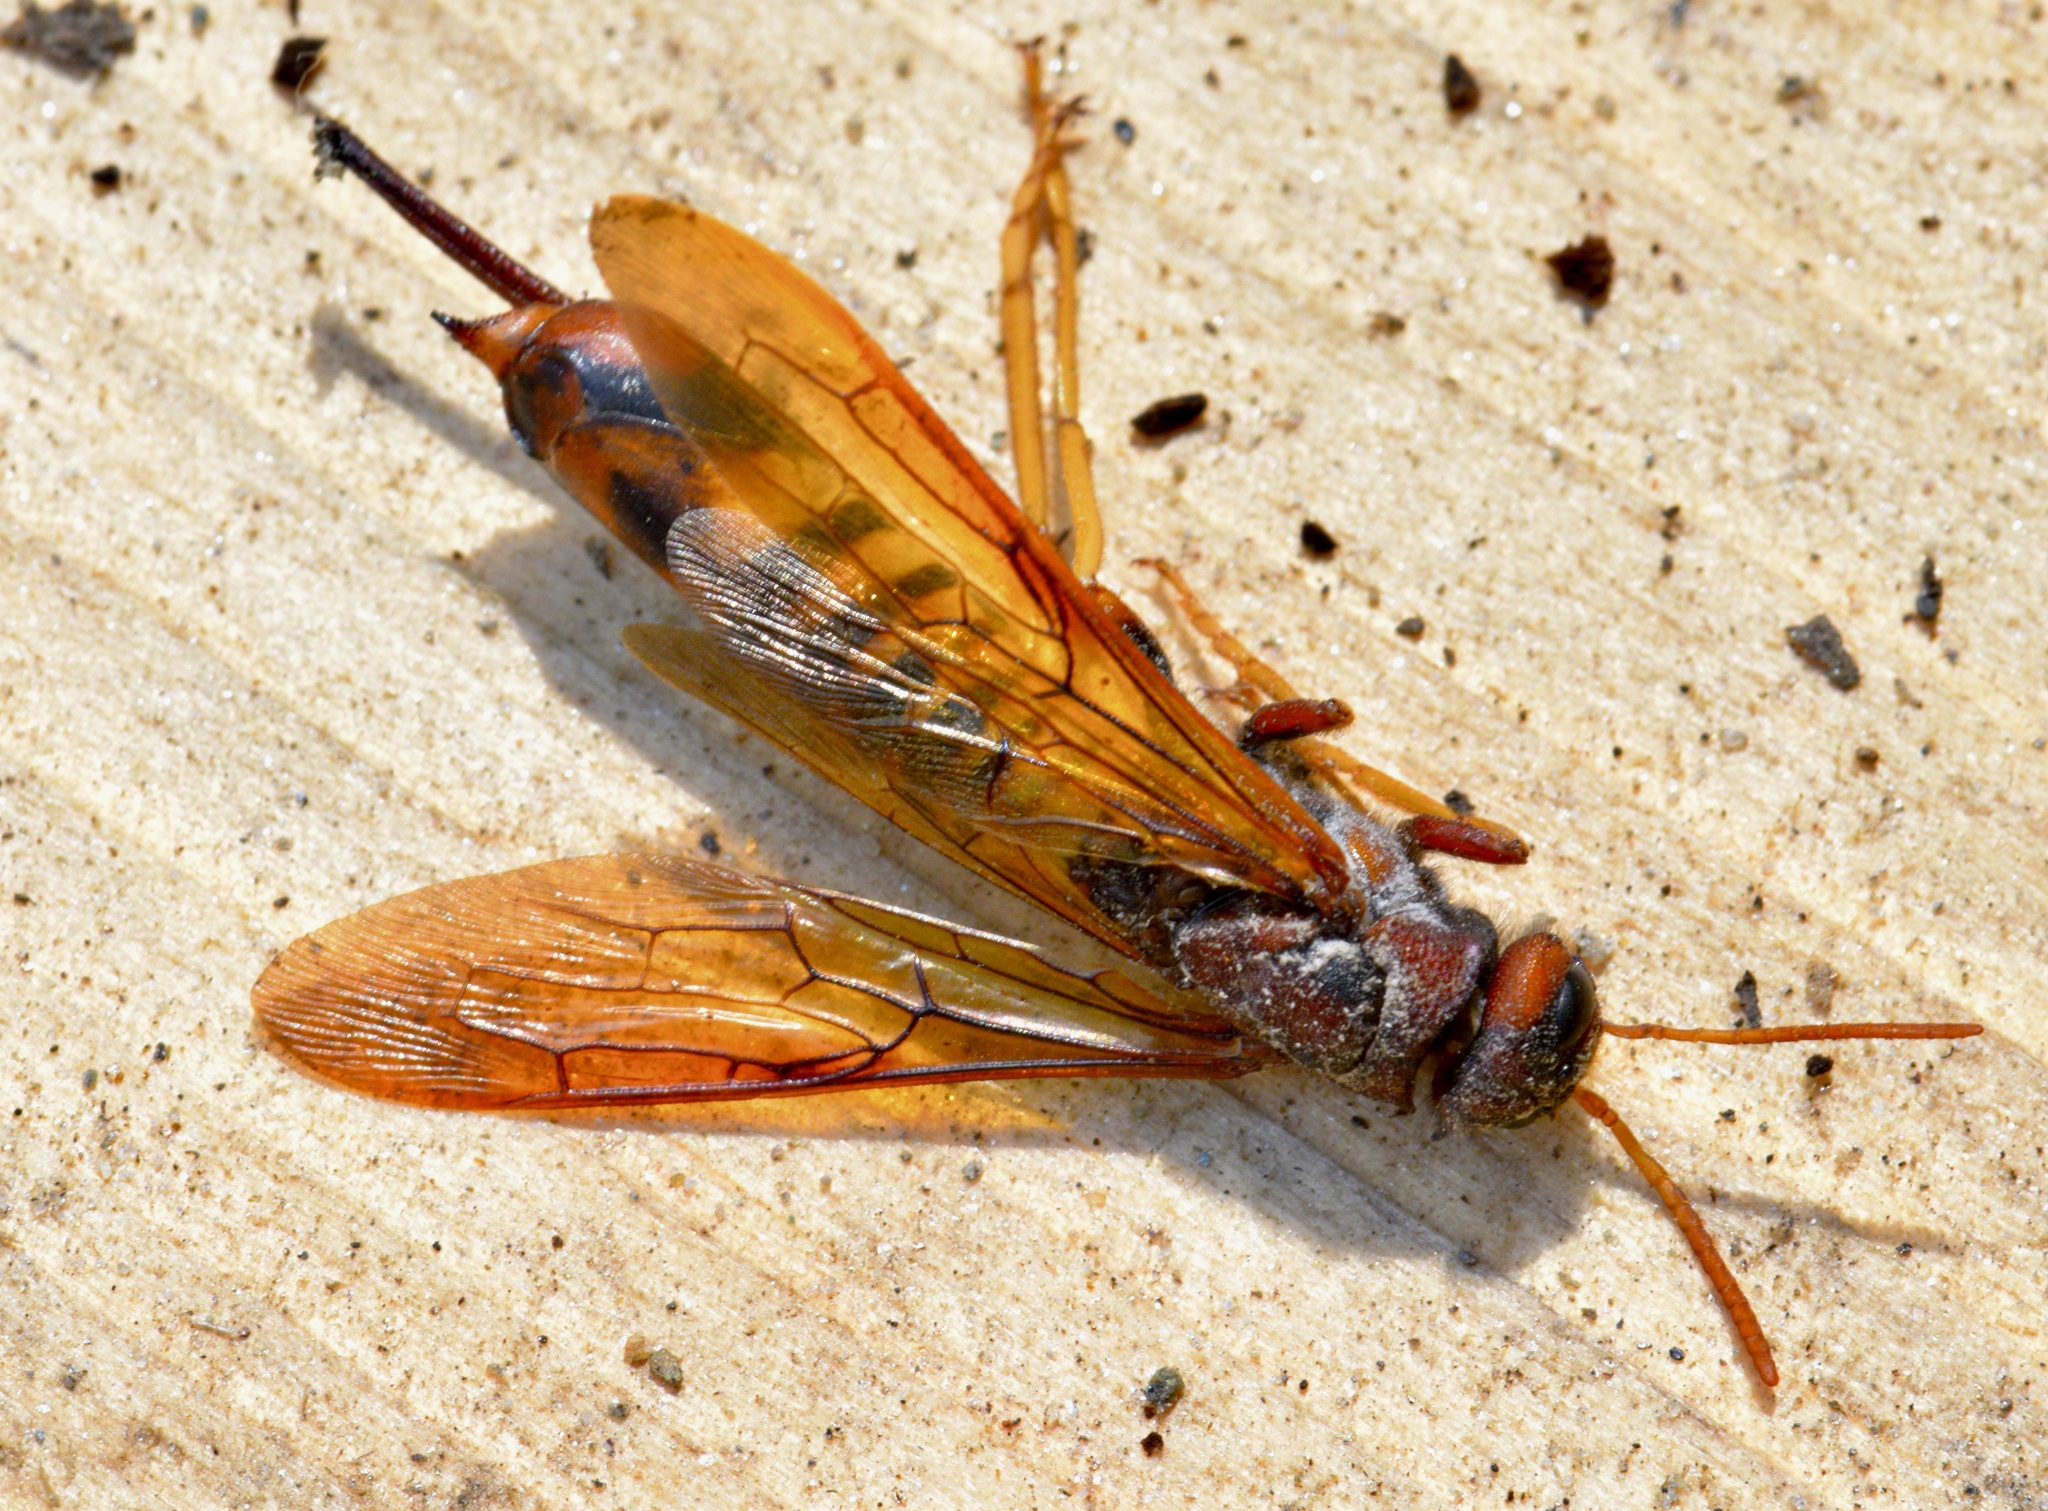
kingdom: Animalia
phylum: Arthropoda
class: Insecta
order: Hymenoptera
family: Siricidae
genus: Tremex
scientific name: Tremex columba
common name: Wasp
